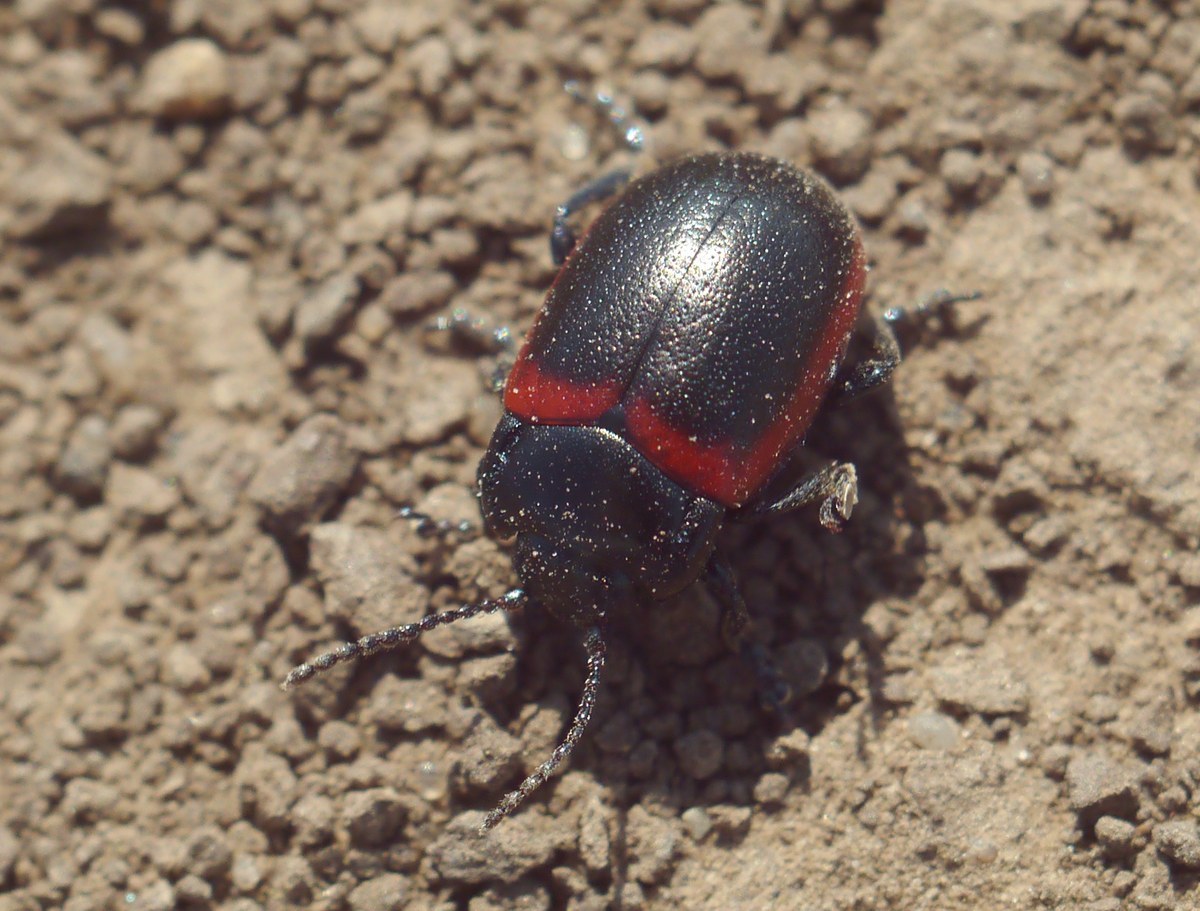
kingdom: Animalia
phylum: Arthropoda
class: Insecta
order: Coleoptera
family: Chrysomelidae
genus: Chrysolina
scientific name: Chrysolina limbata
